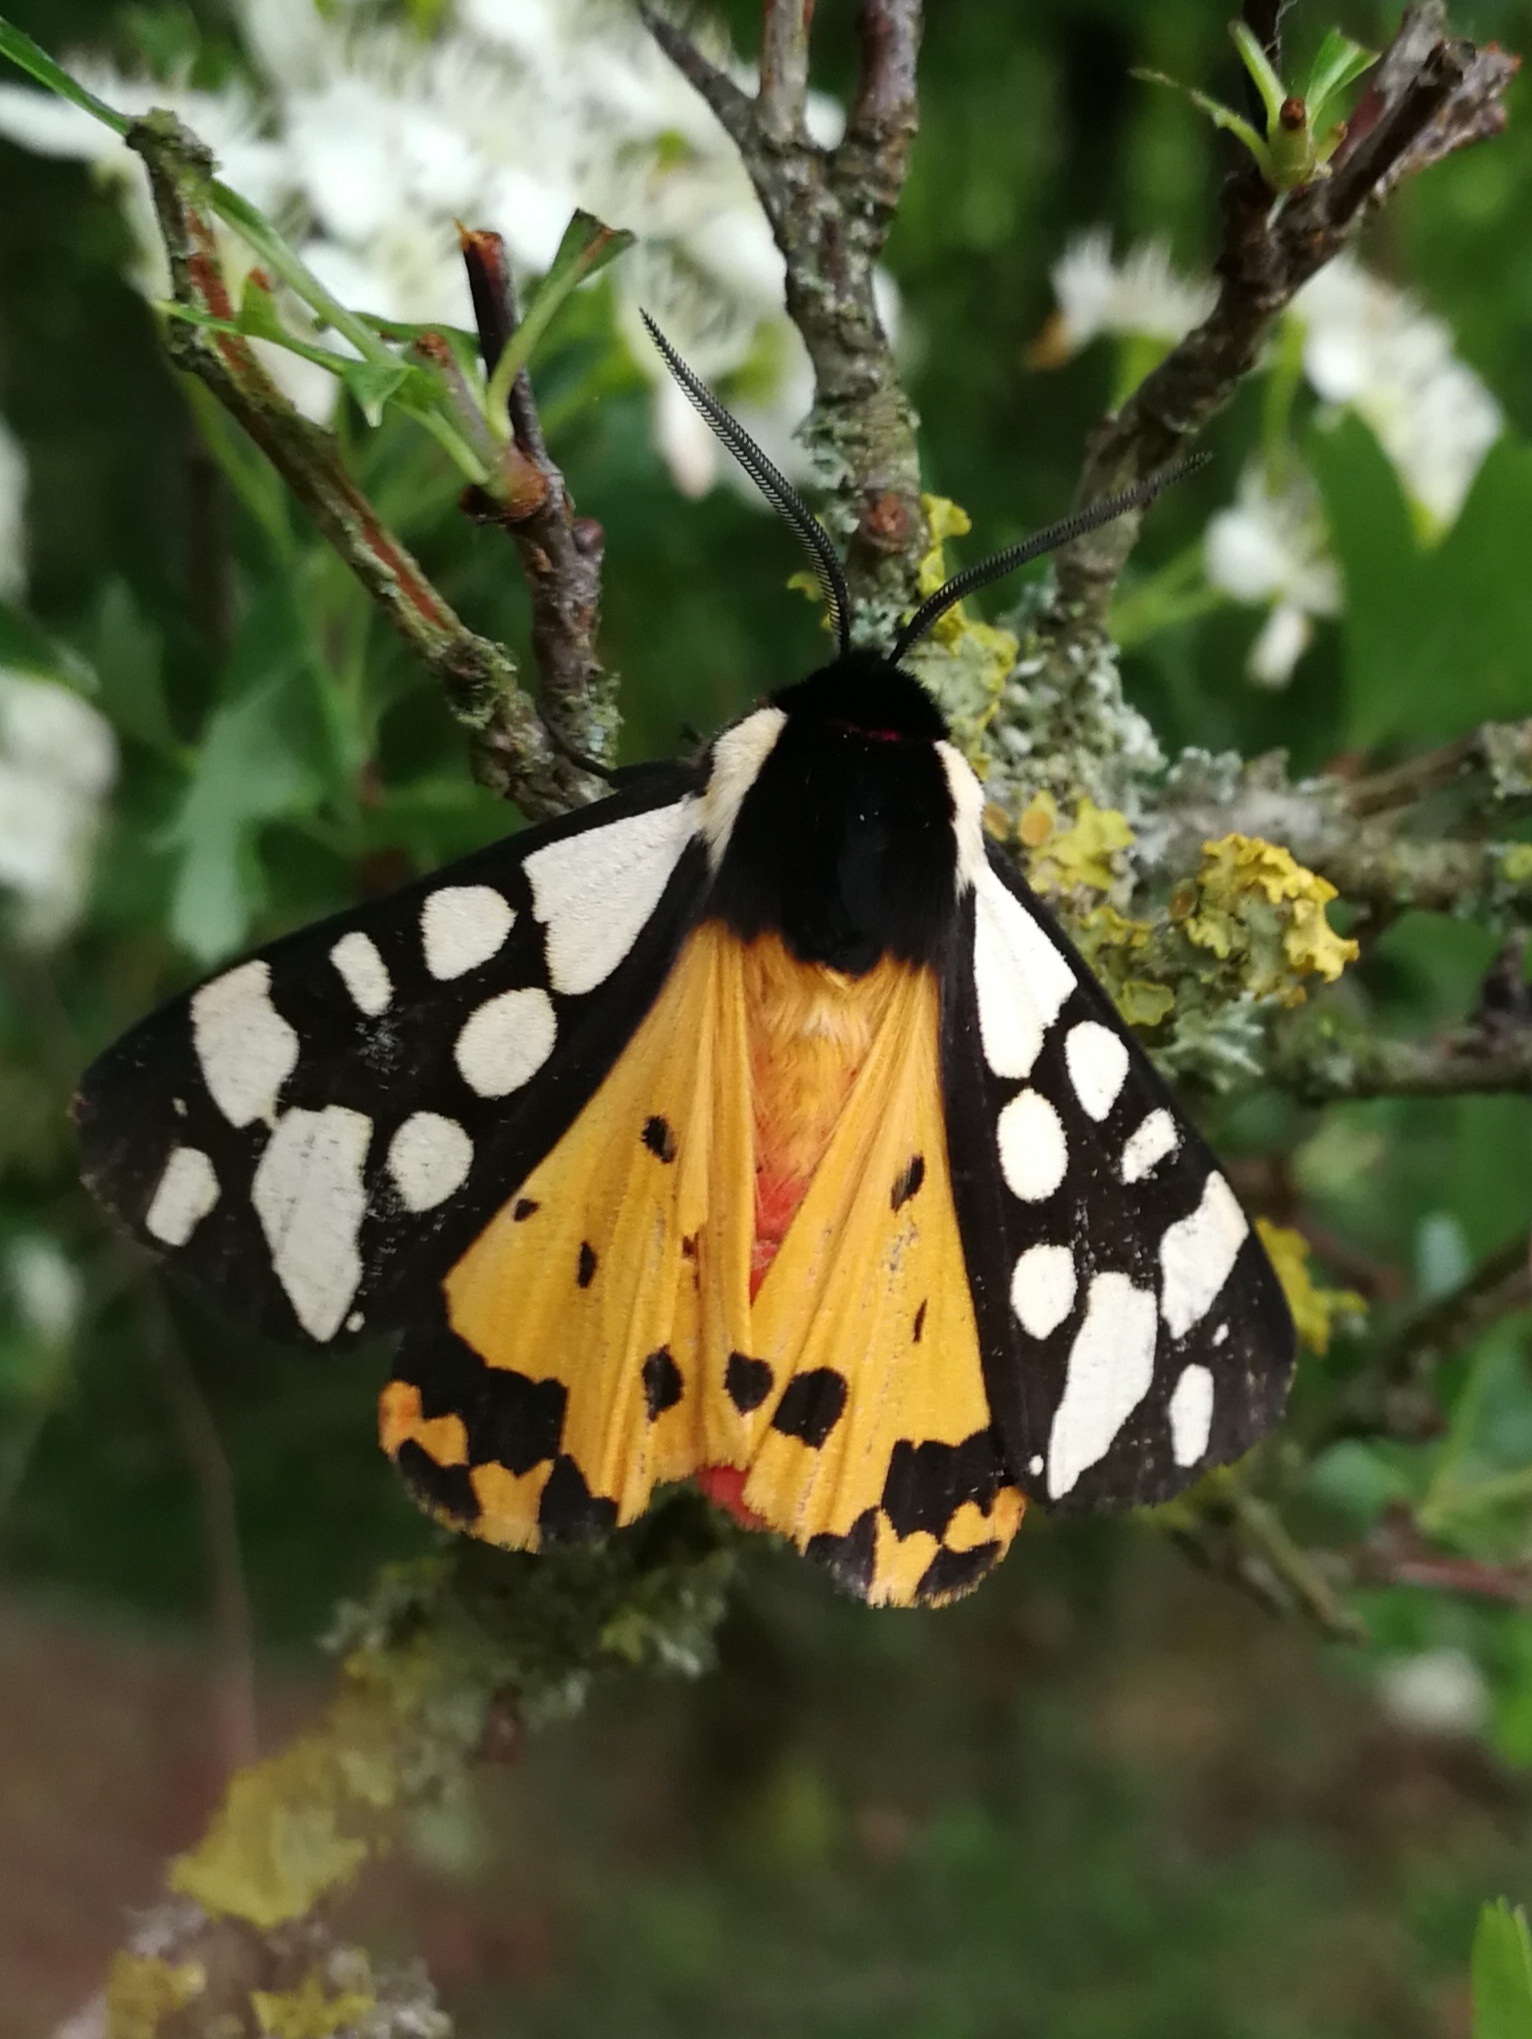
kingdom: Animalia
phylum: Arthropoda
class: Insecta
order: Lepidoptera
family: Erebidae
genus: Epicallia
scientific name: Epicallia villica
